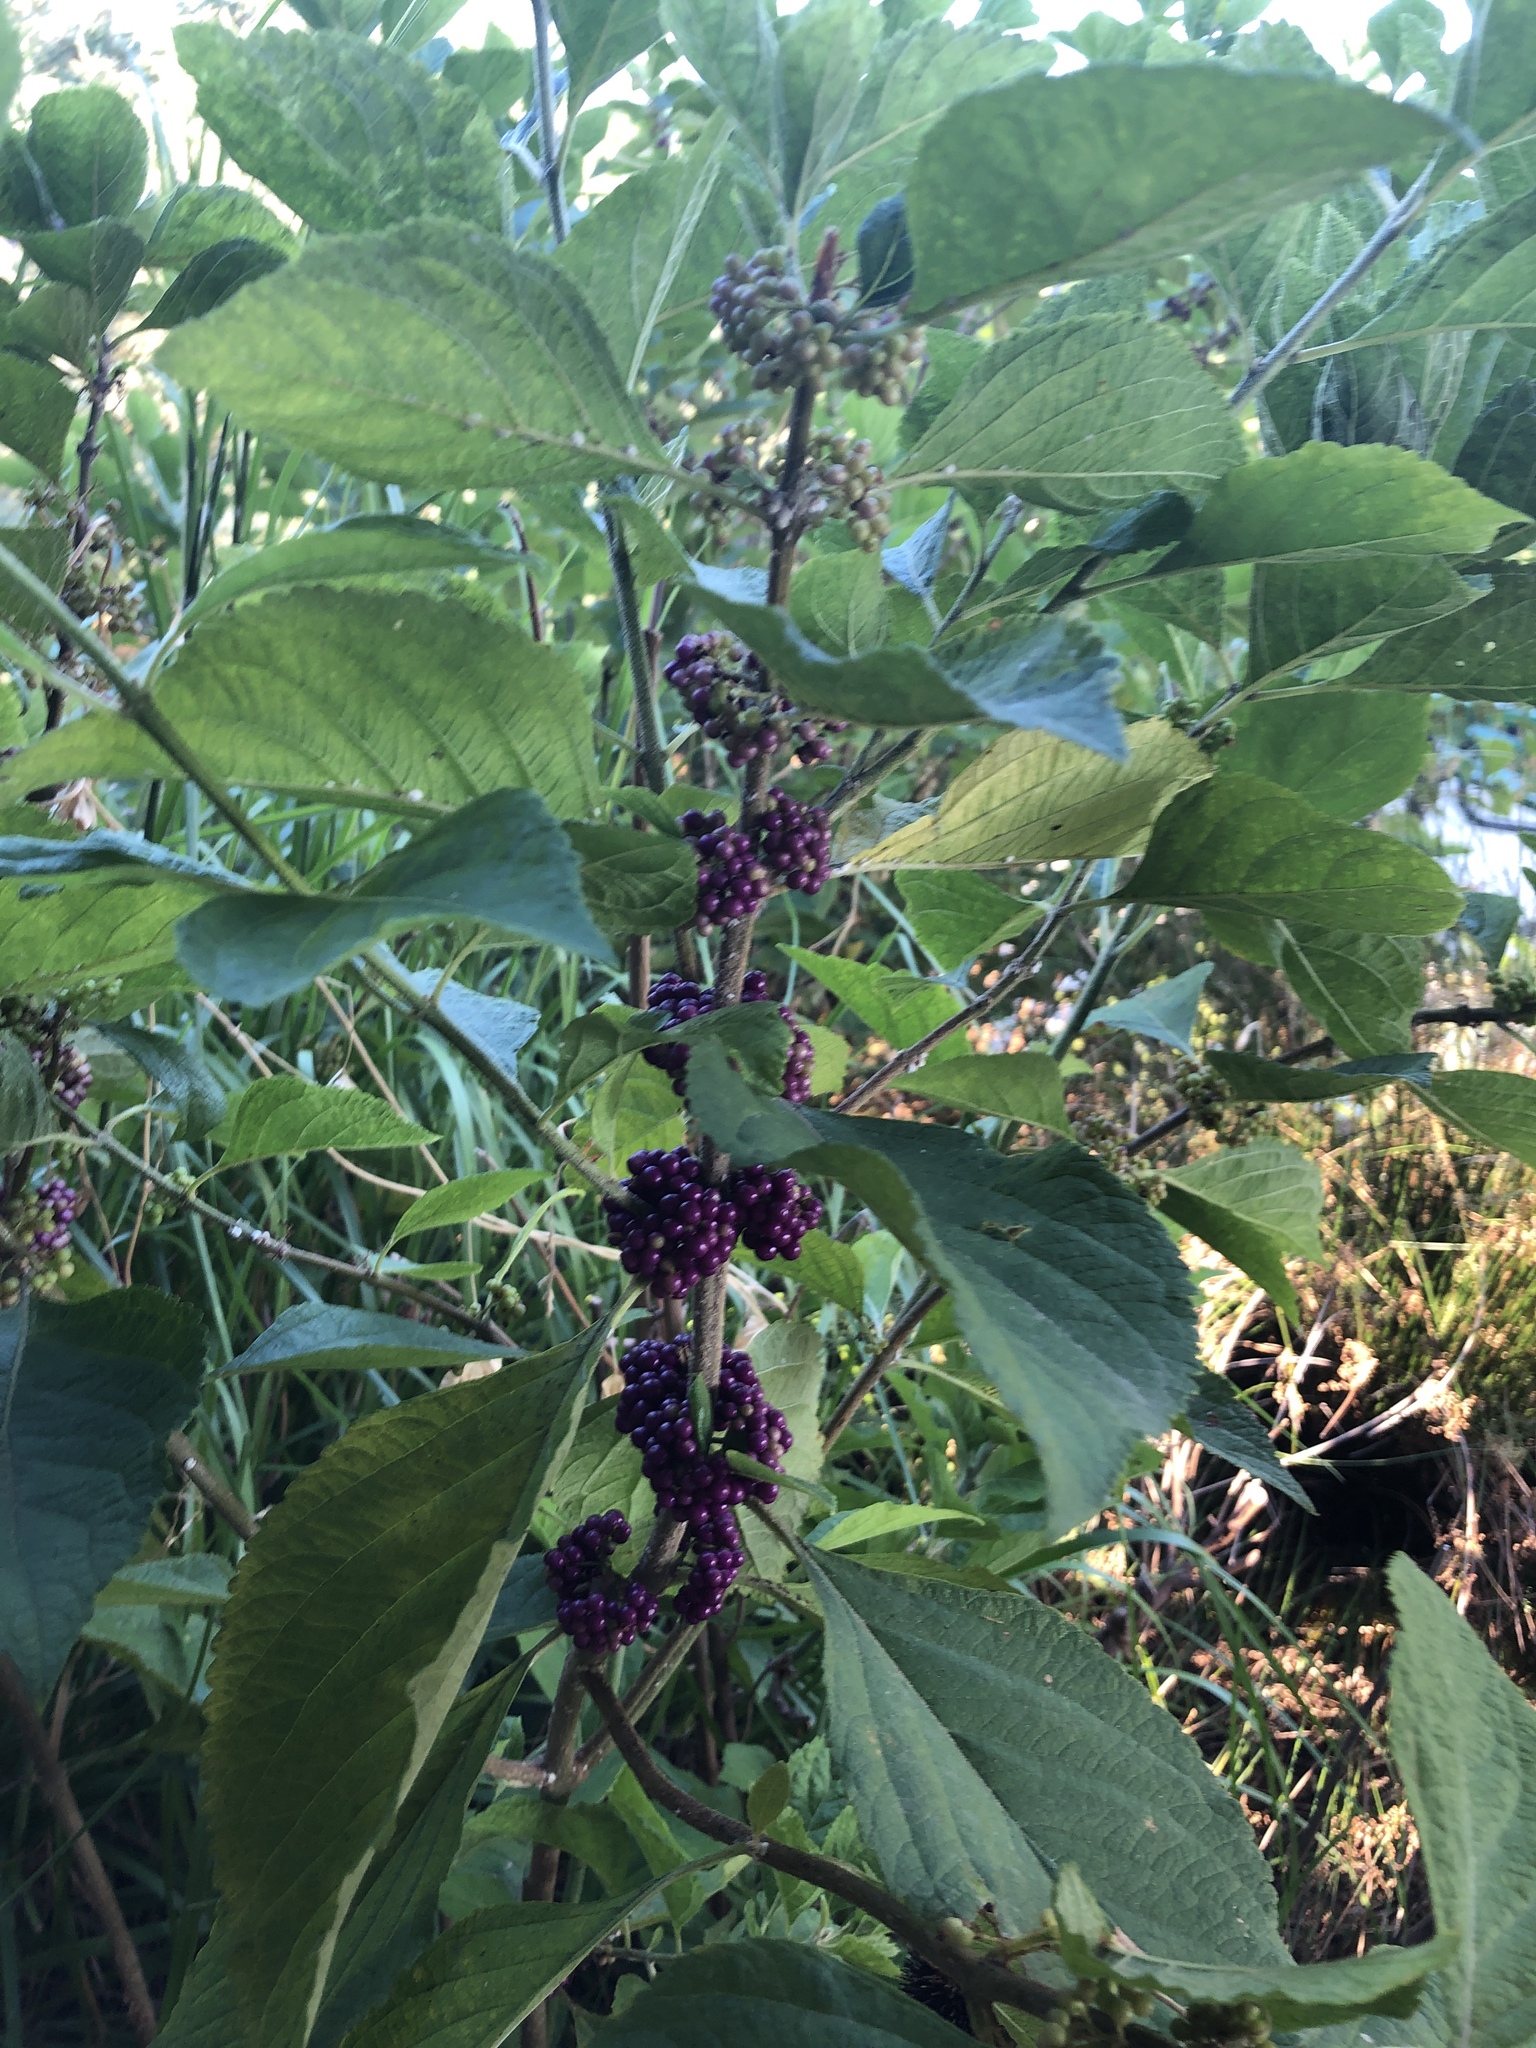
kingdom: Plantae
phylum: Tracheophyta
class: Magnoliopsida
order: Lamiales
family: Lamiaceae
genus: Callicarpa
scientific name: Callicarpa americana
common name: American beautyberry
